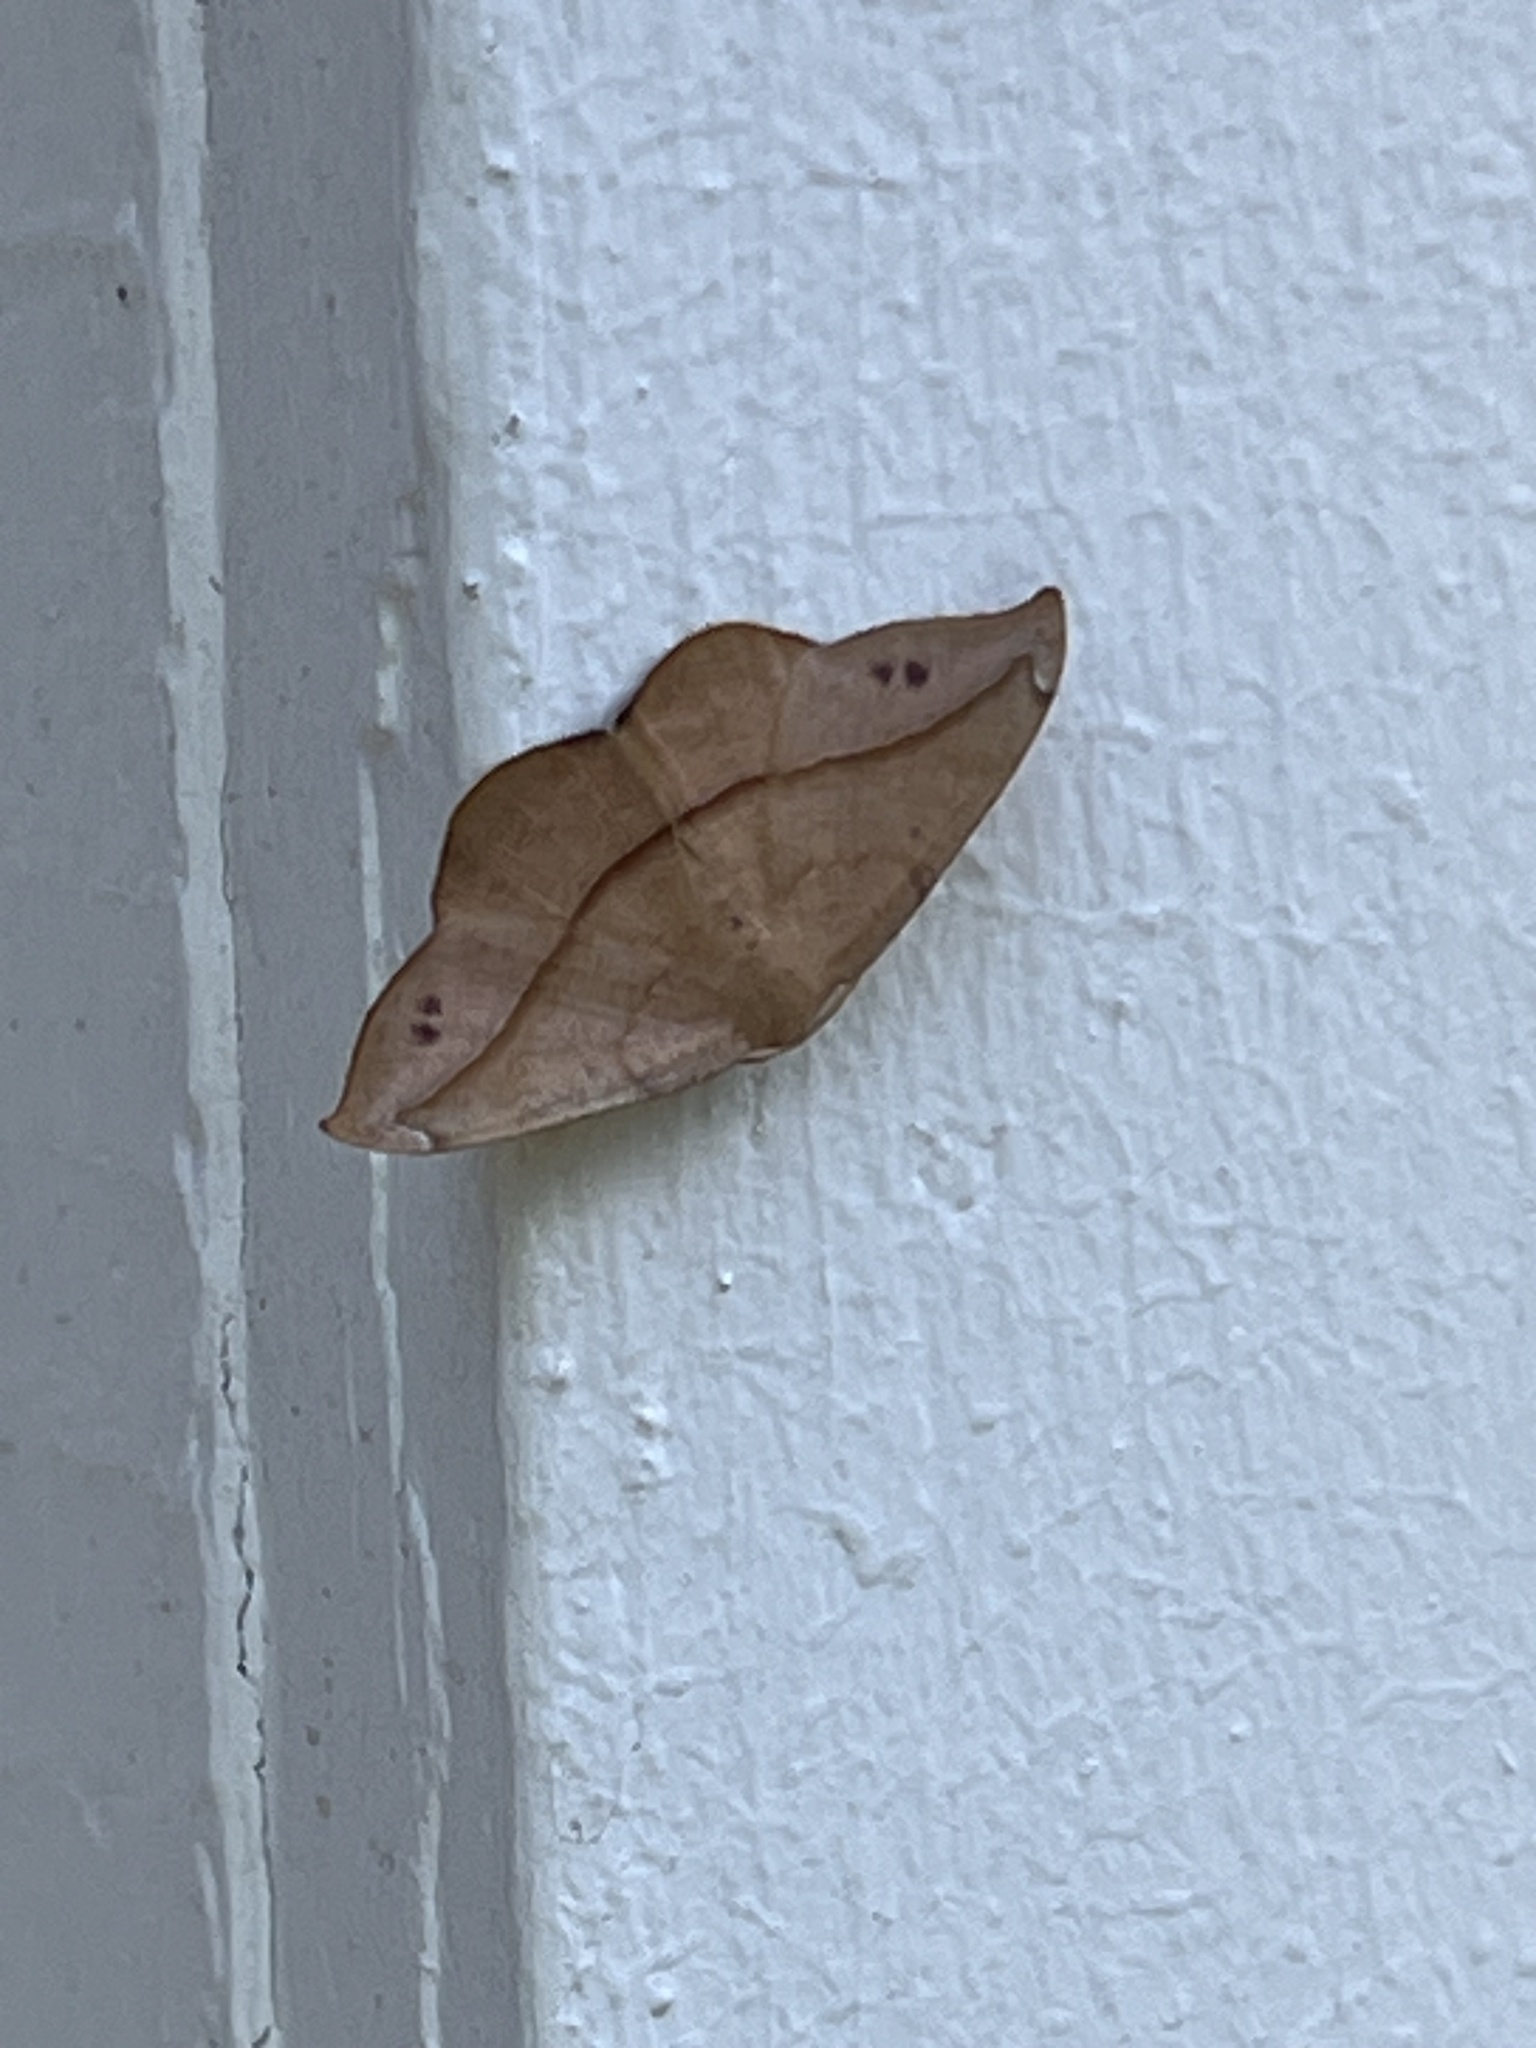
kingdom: Animalia
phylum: Arthropoda
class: Insecta
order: Lepidoptera
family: Geometridae
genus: Patalene
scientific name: Patalene olyzonaria
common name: Juniper geometer moth
